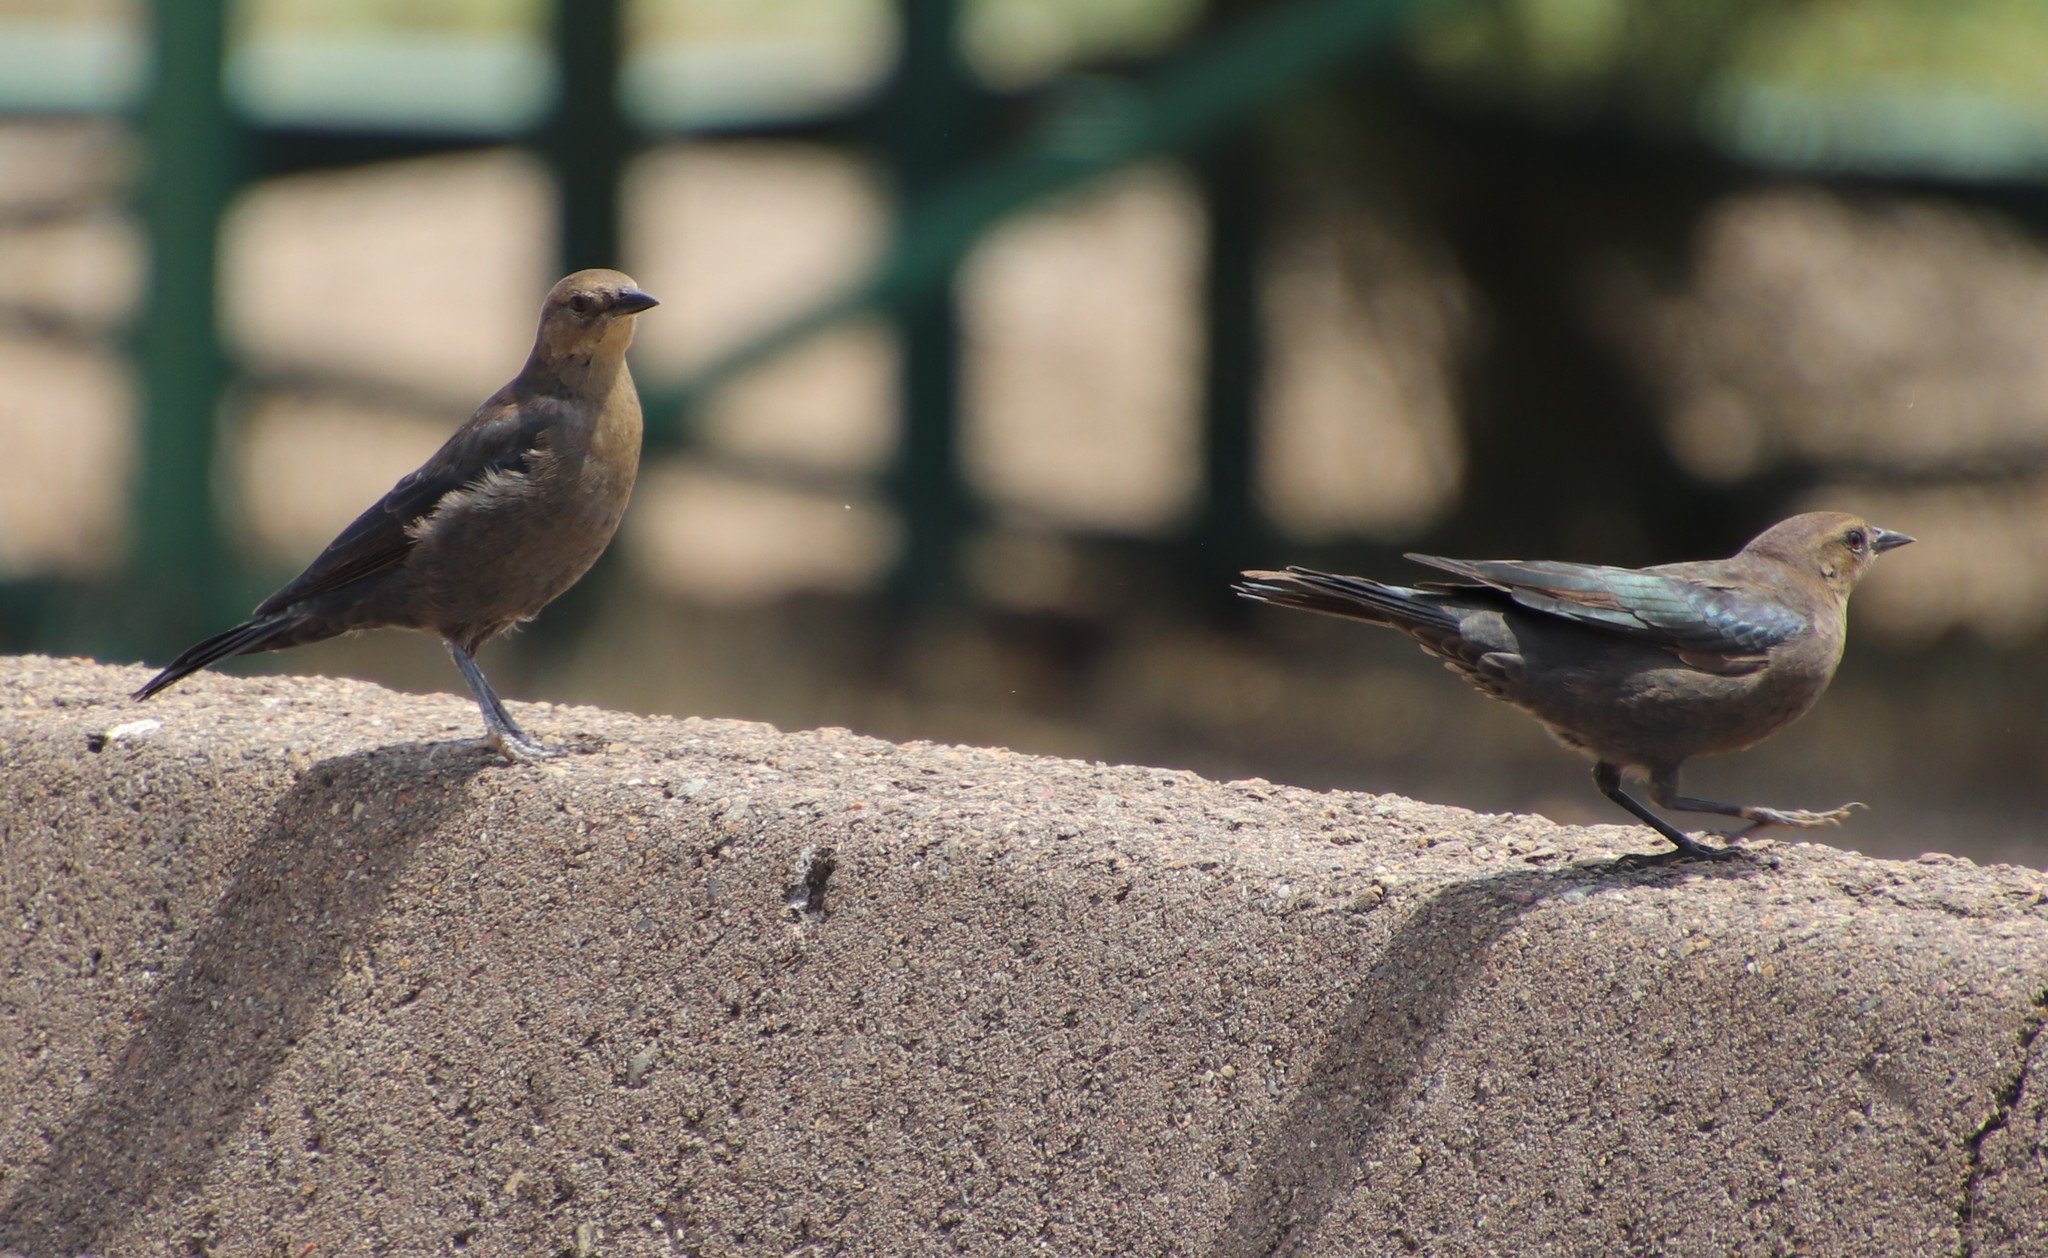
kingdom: Animalia
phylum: Chordata
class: Aves
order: Passeriformes
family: Icteridae
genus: Euphagus
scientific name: Euphagus cyanocephalus
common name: Brewer's blackbird
